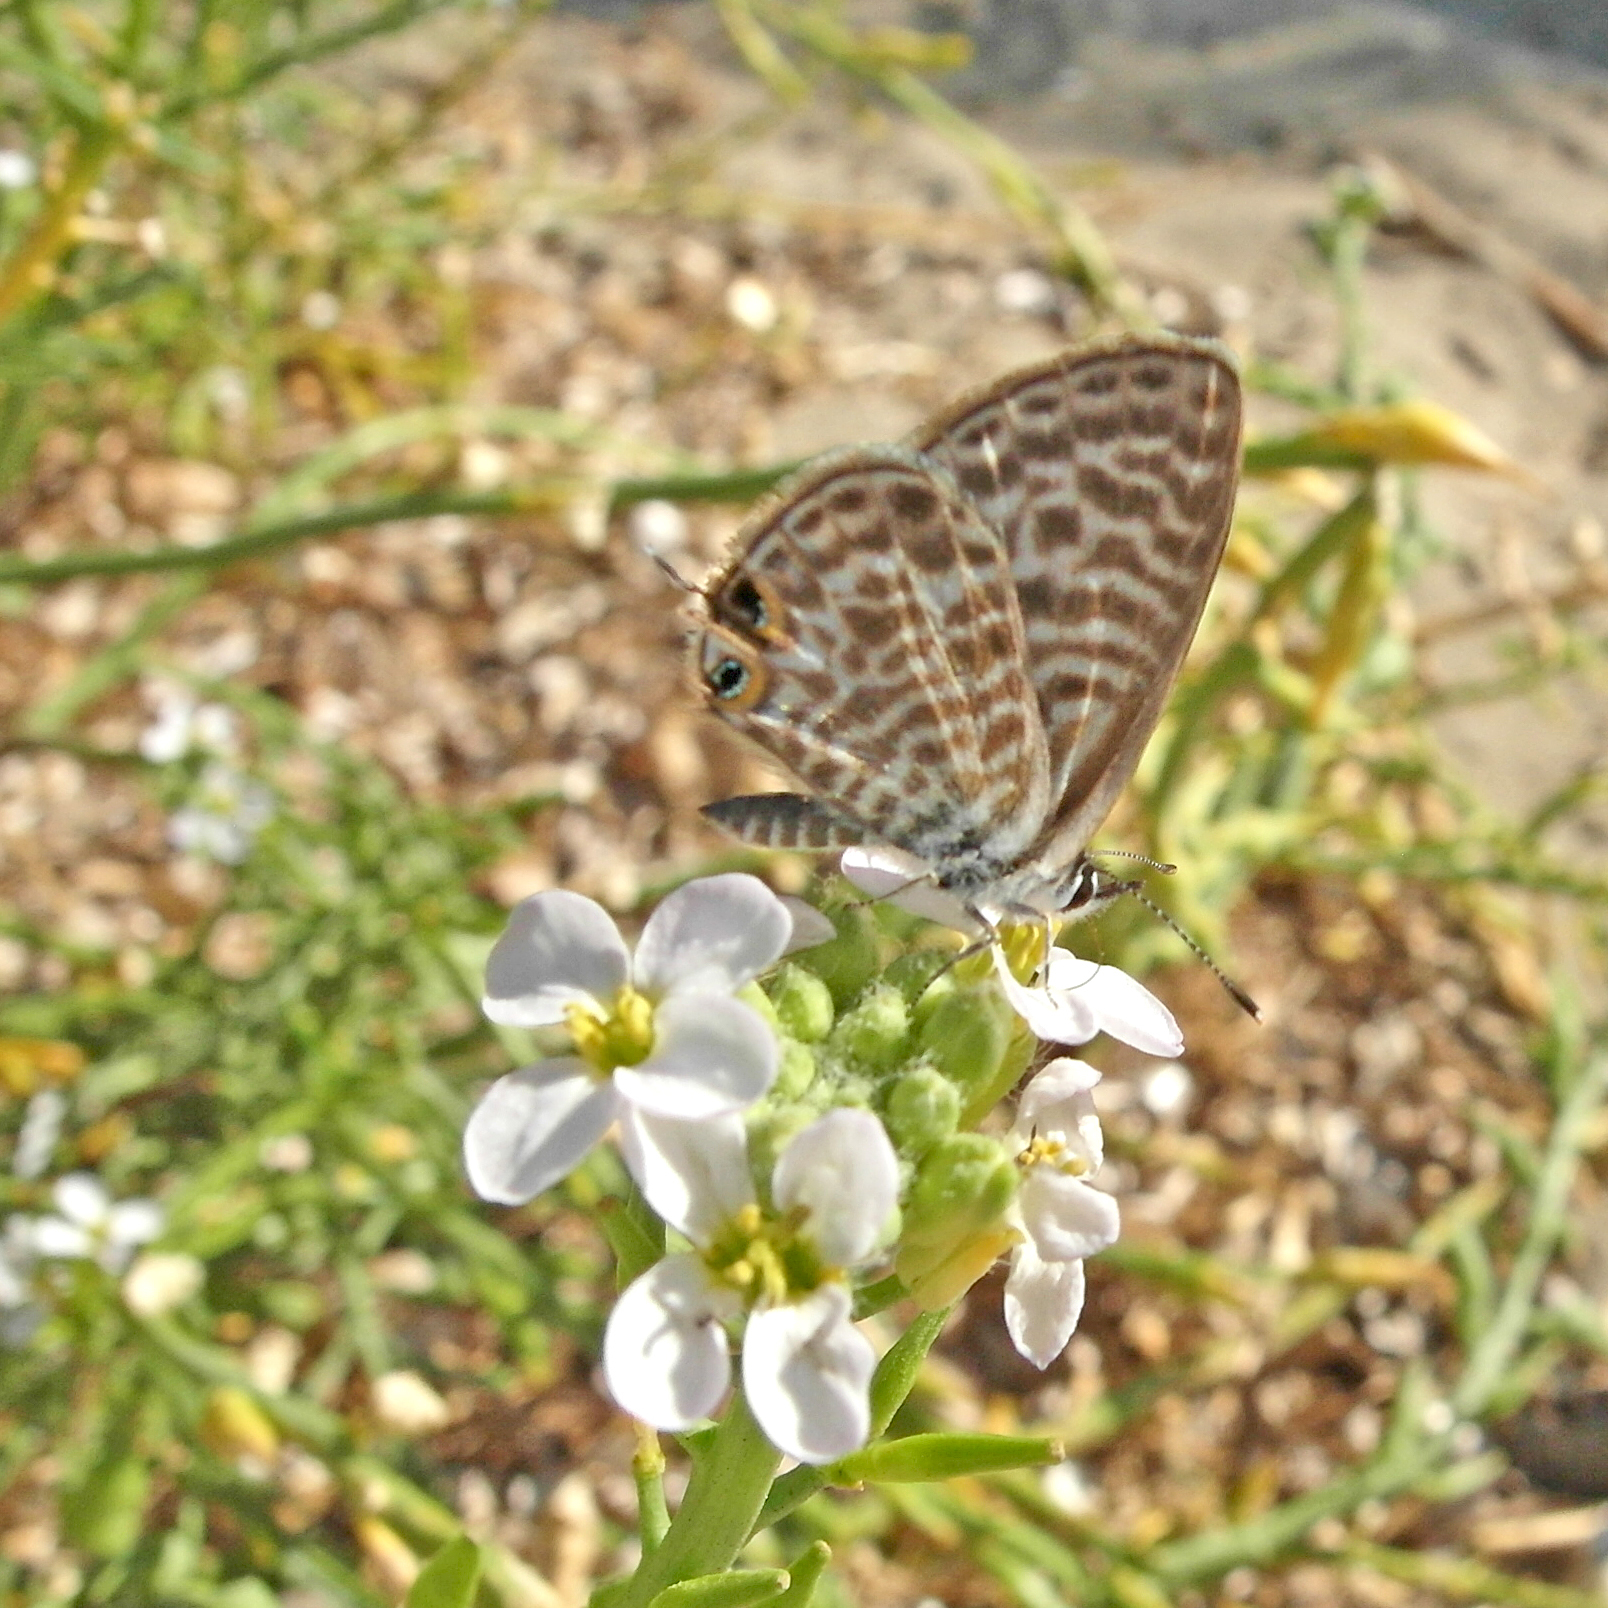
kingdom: Animalia
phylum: Arthropoda
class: Insecta
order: Lepidoptera
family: Lycaenidae
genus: Leptotes
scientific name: Leptotes pirithous
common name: Lang's short-tailed blue
